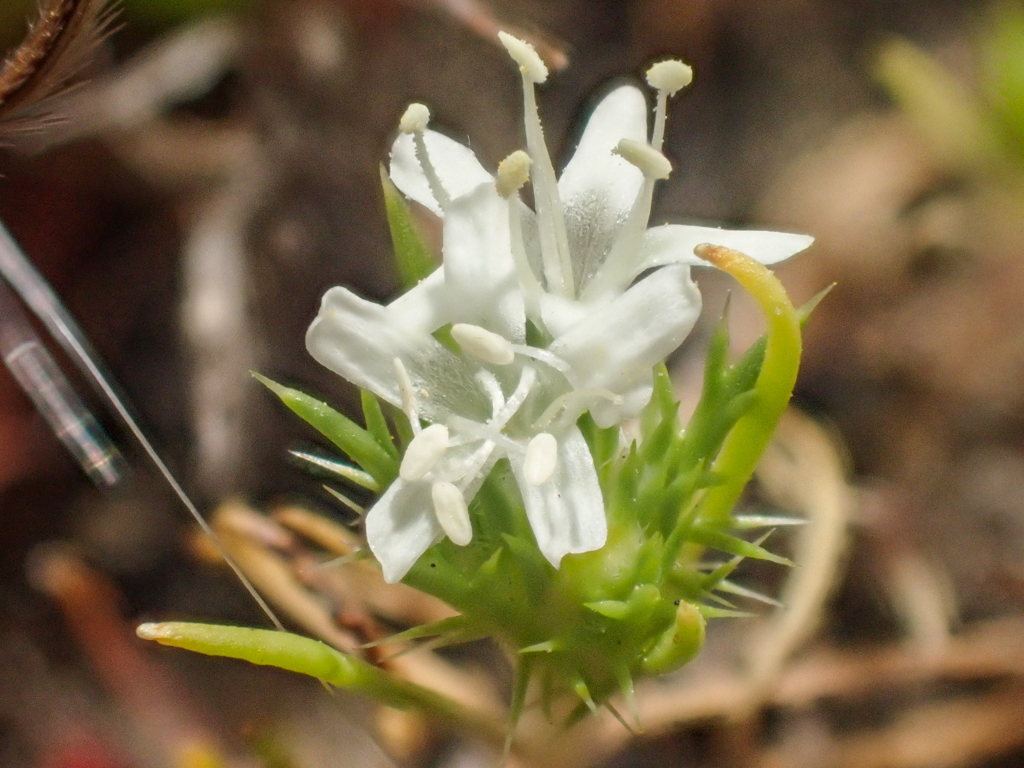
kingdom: Plantae
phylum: Tracheophyta
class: Magnoliopsida
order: Ericales
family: Polemoniaceae
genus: Navarretia
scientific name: Navarretia leucocephala
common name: White-flowered navarretia
